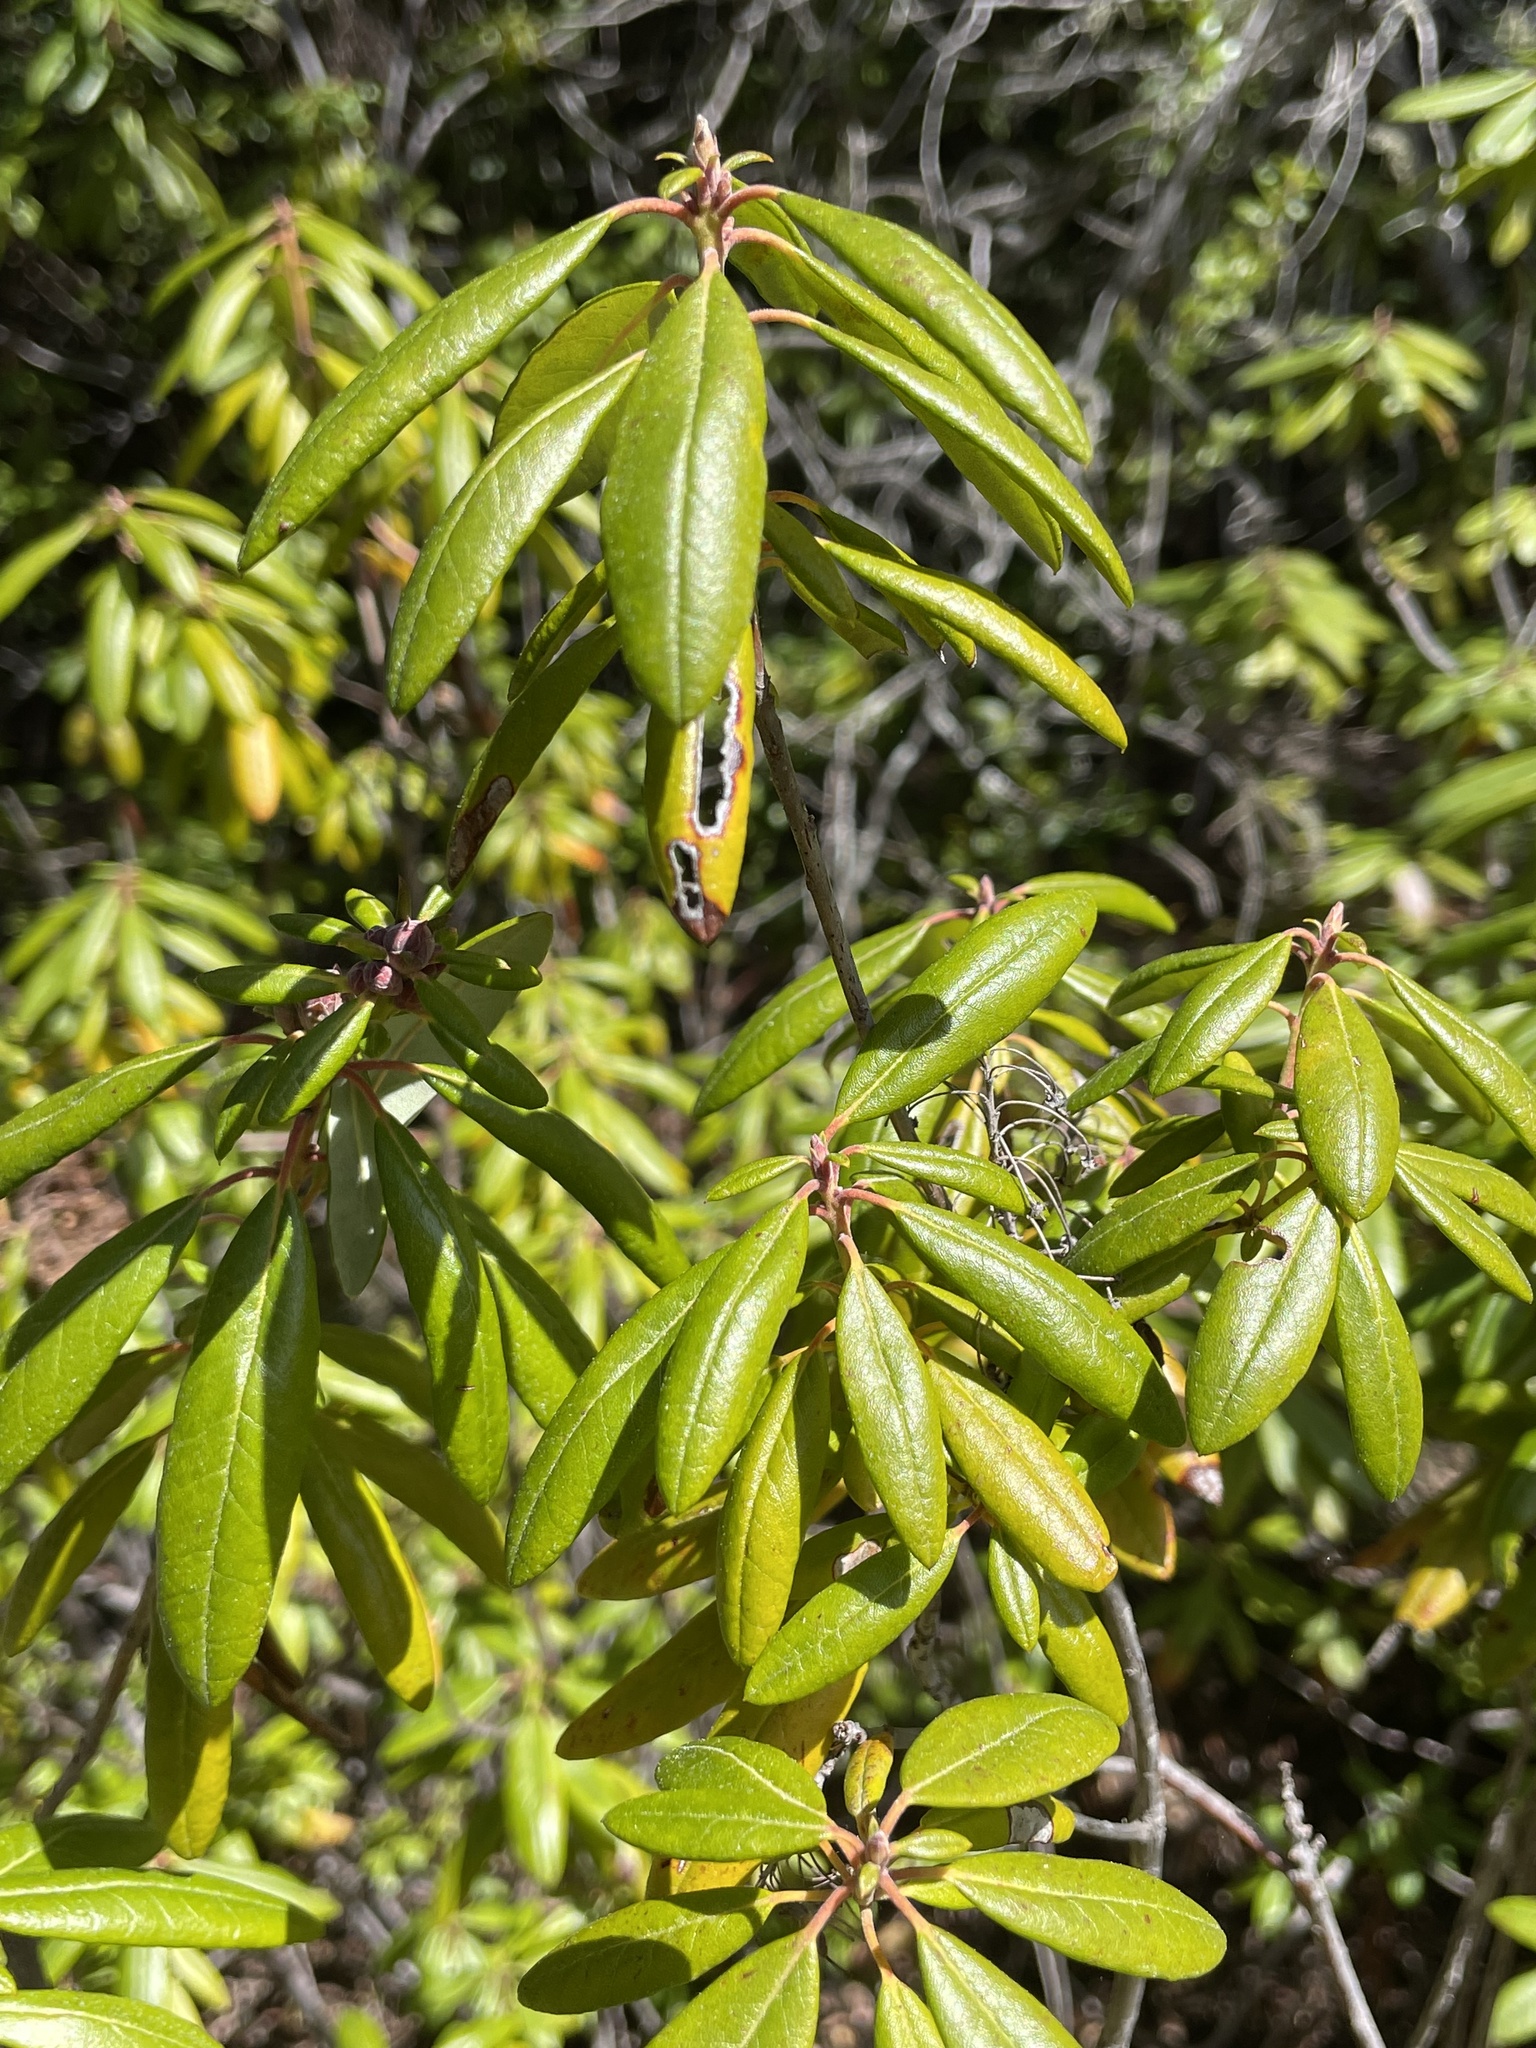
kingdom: Plantae
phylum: Tracheophyta
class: Magnoliopsida
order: Ericales
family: Ericaceae
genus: Rhododendron
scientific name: Rhododendron columbianum
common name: Western labrador tea
